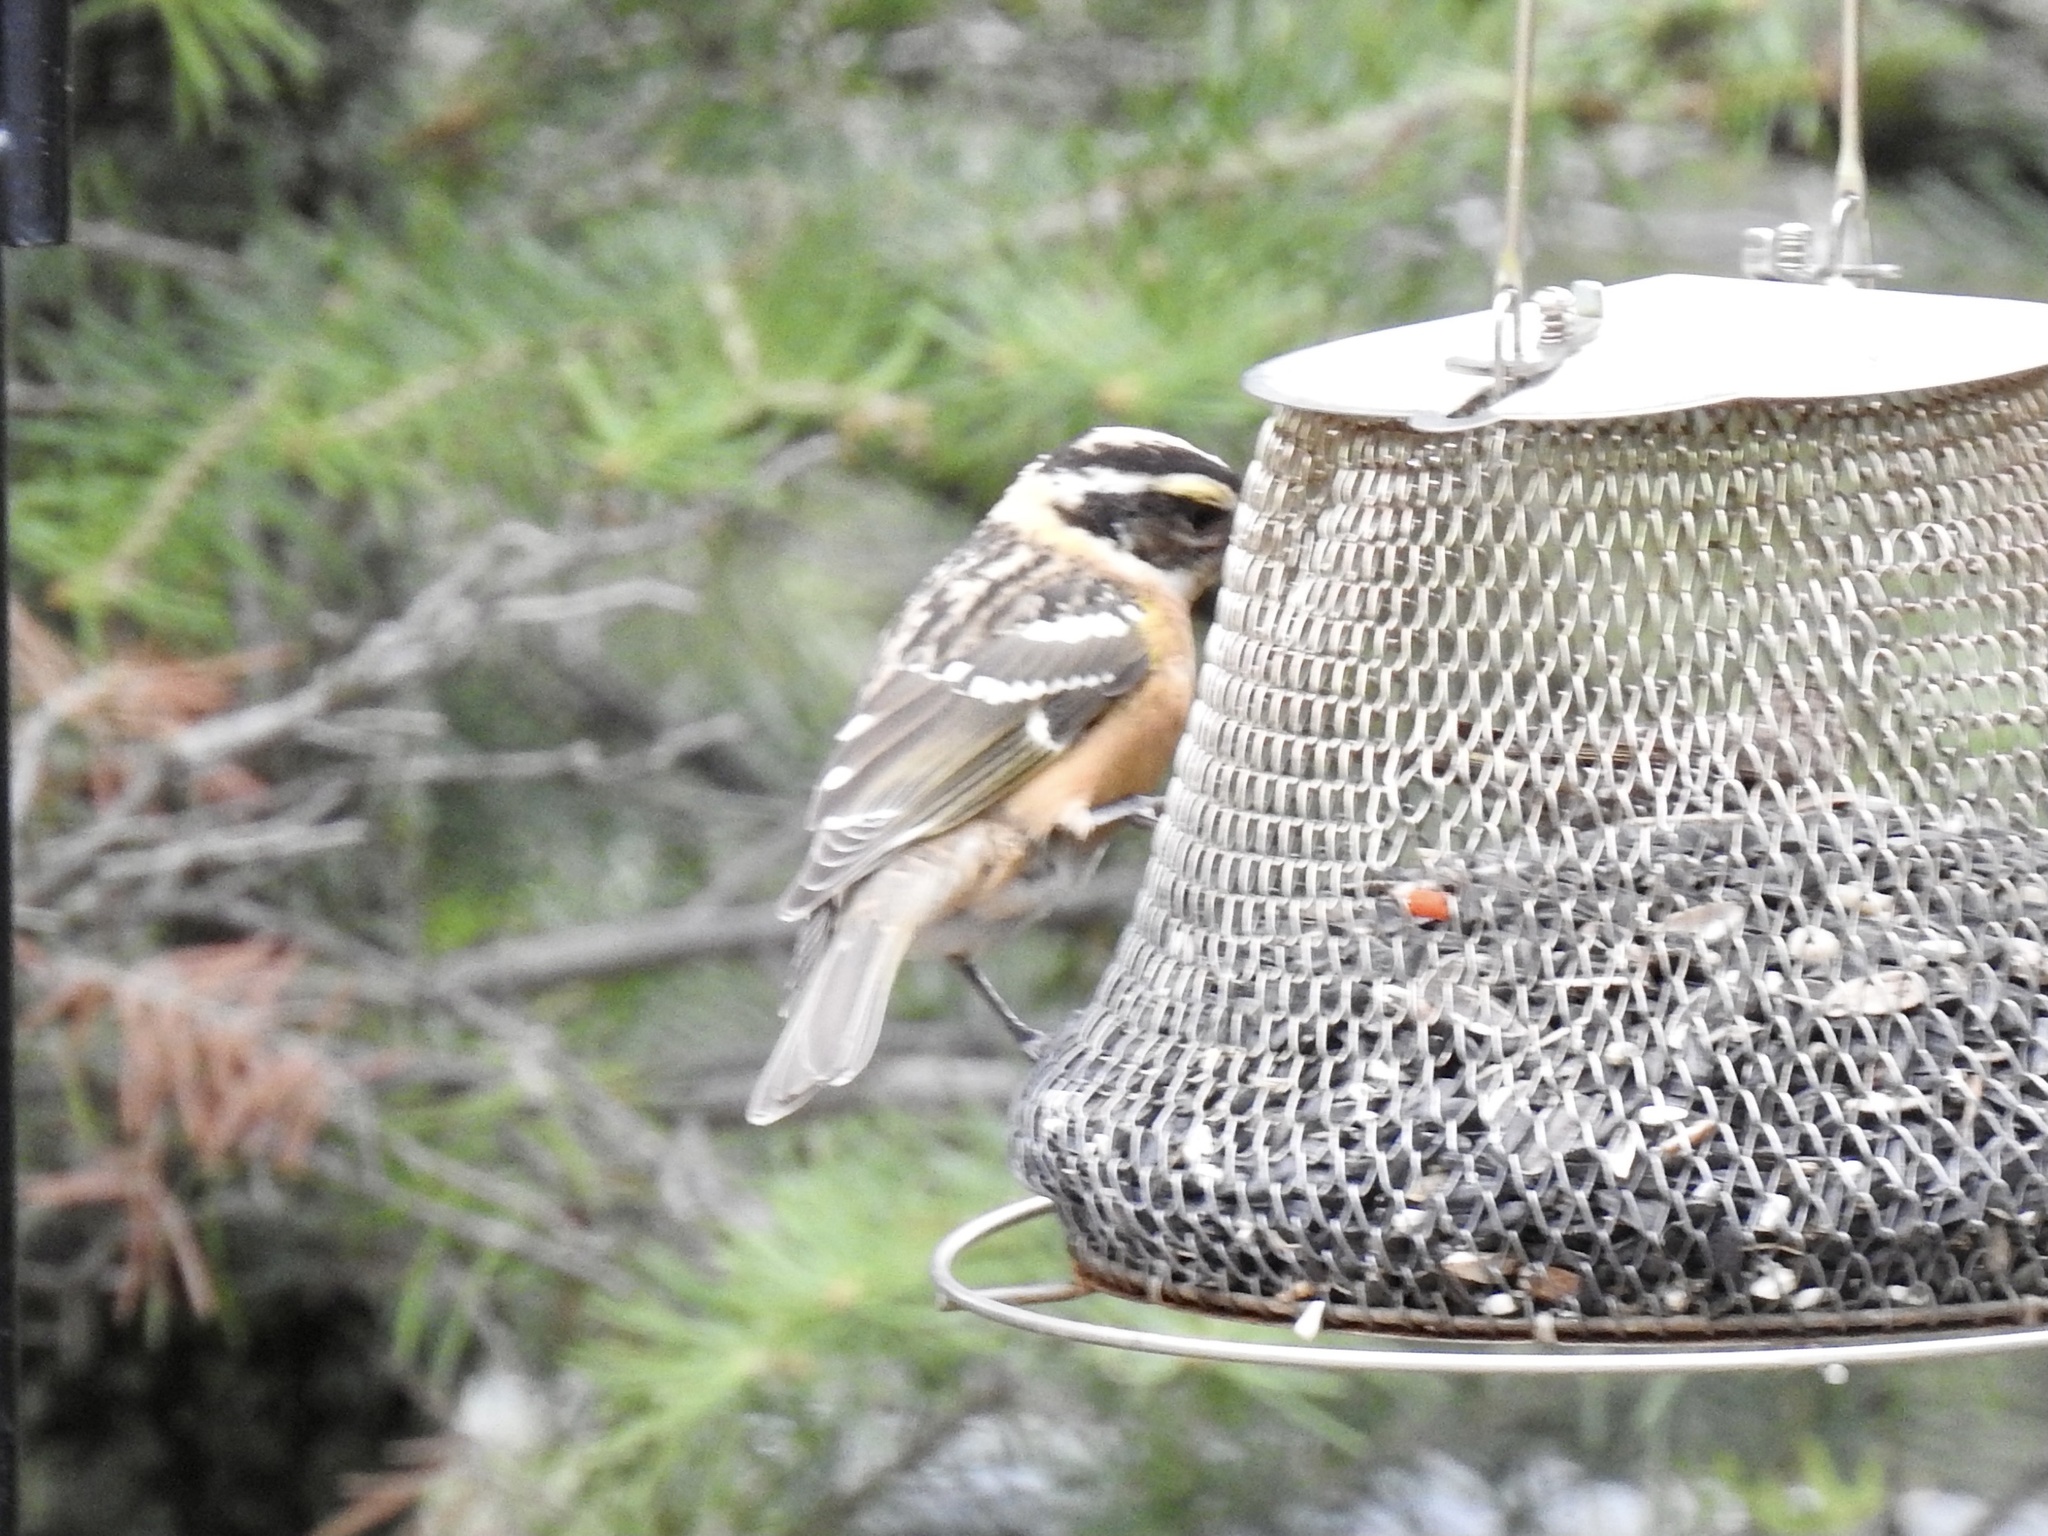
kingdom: Animalia
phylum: Chordata
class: Aves
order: Passeriformes
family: Cardinalidae
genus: Pheucticus
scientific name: Pheucticus melanocephalus
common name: Black-headed grosbeak
